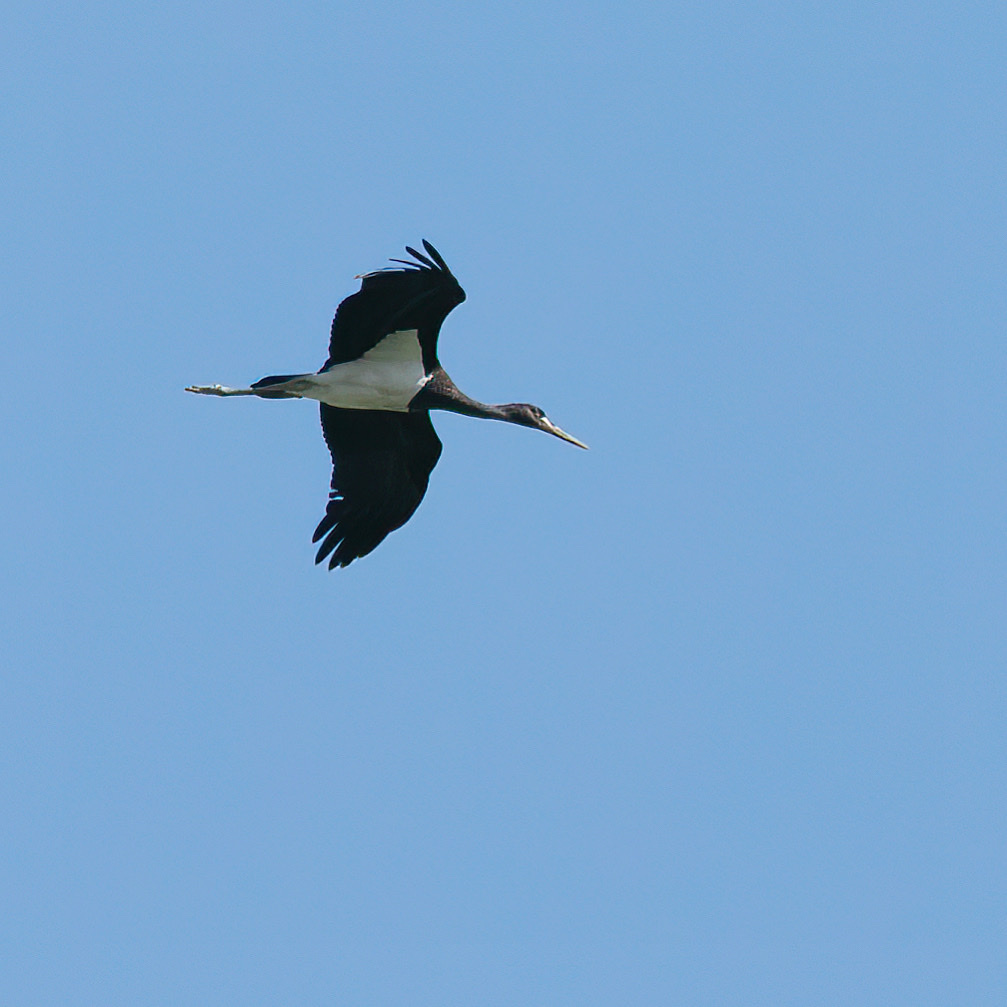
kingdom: Animalia
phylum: Chordata
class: Aves
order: Ciconiiformes
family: Ciconiidae
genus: Ciconia
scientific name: Ciconia nigra
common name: Black stork
